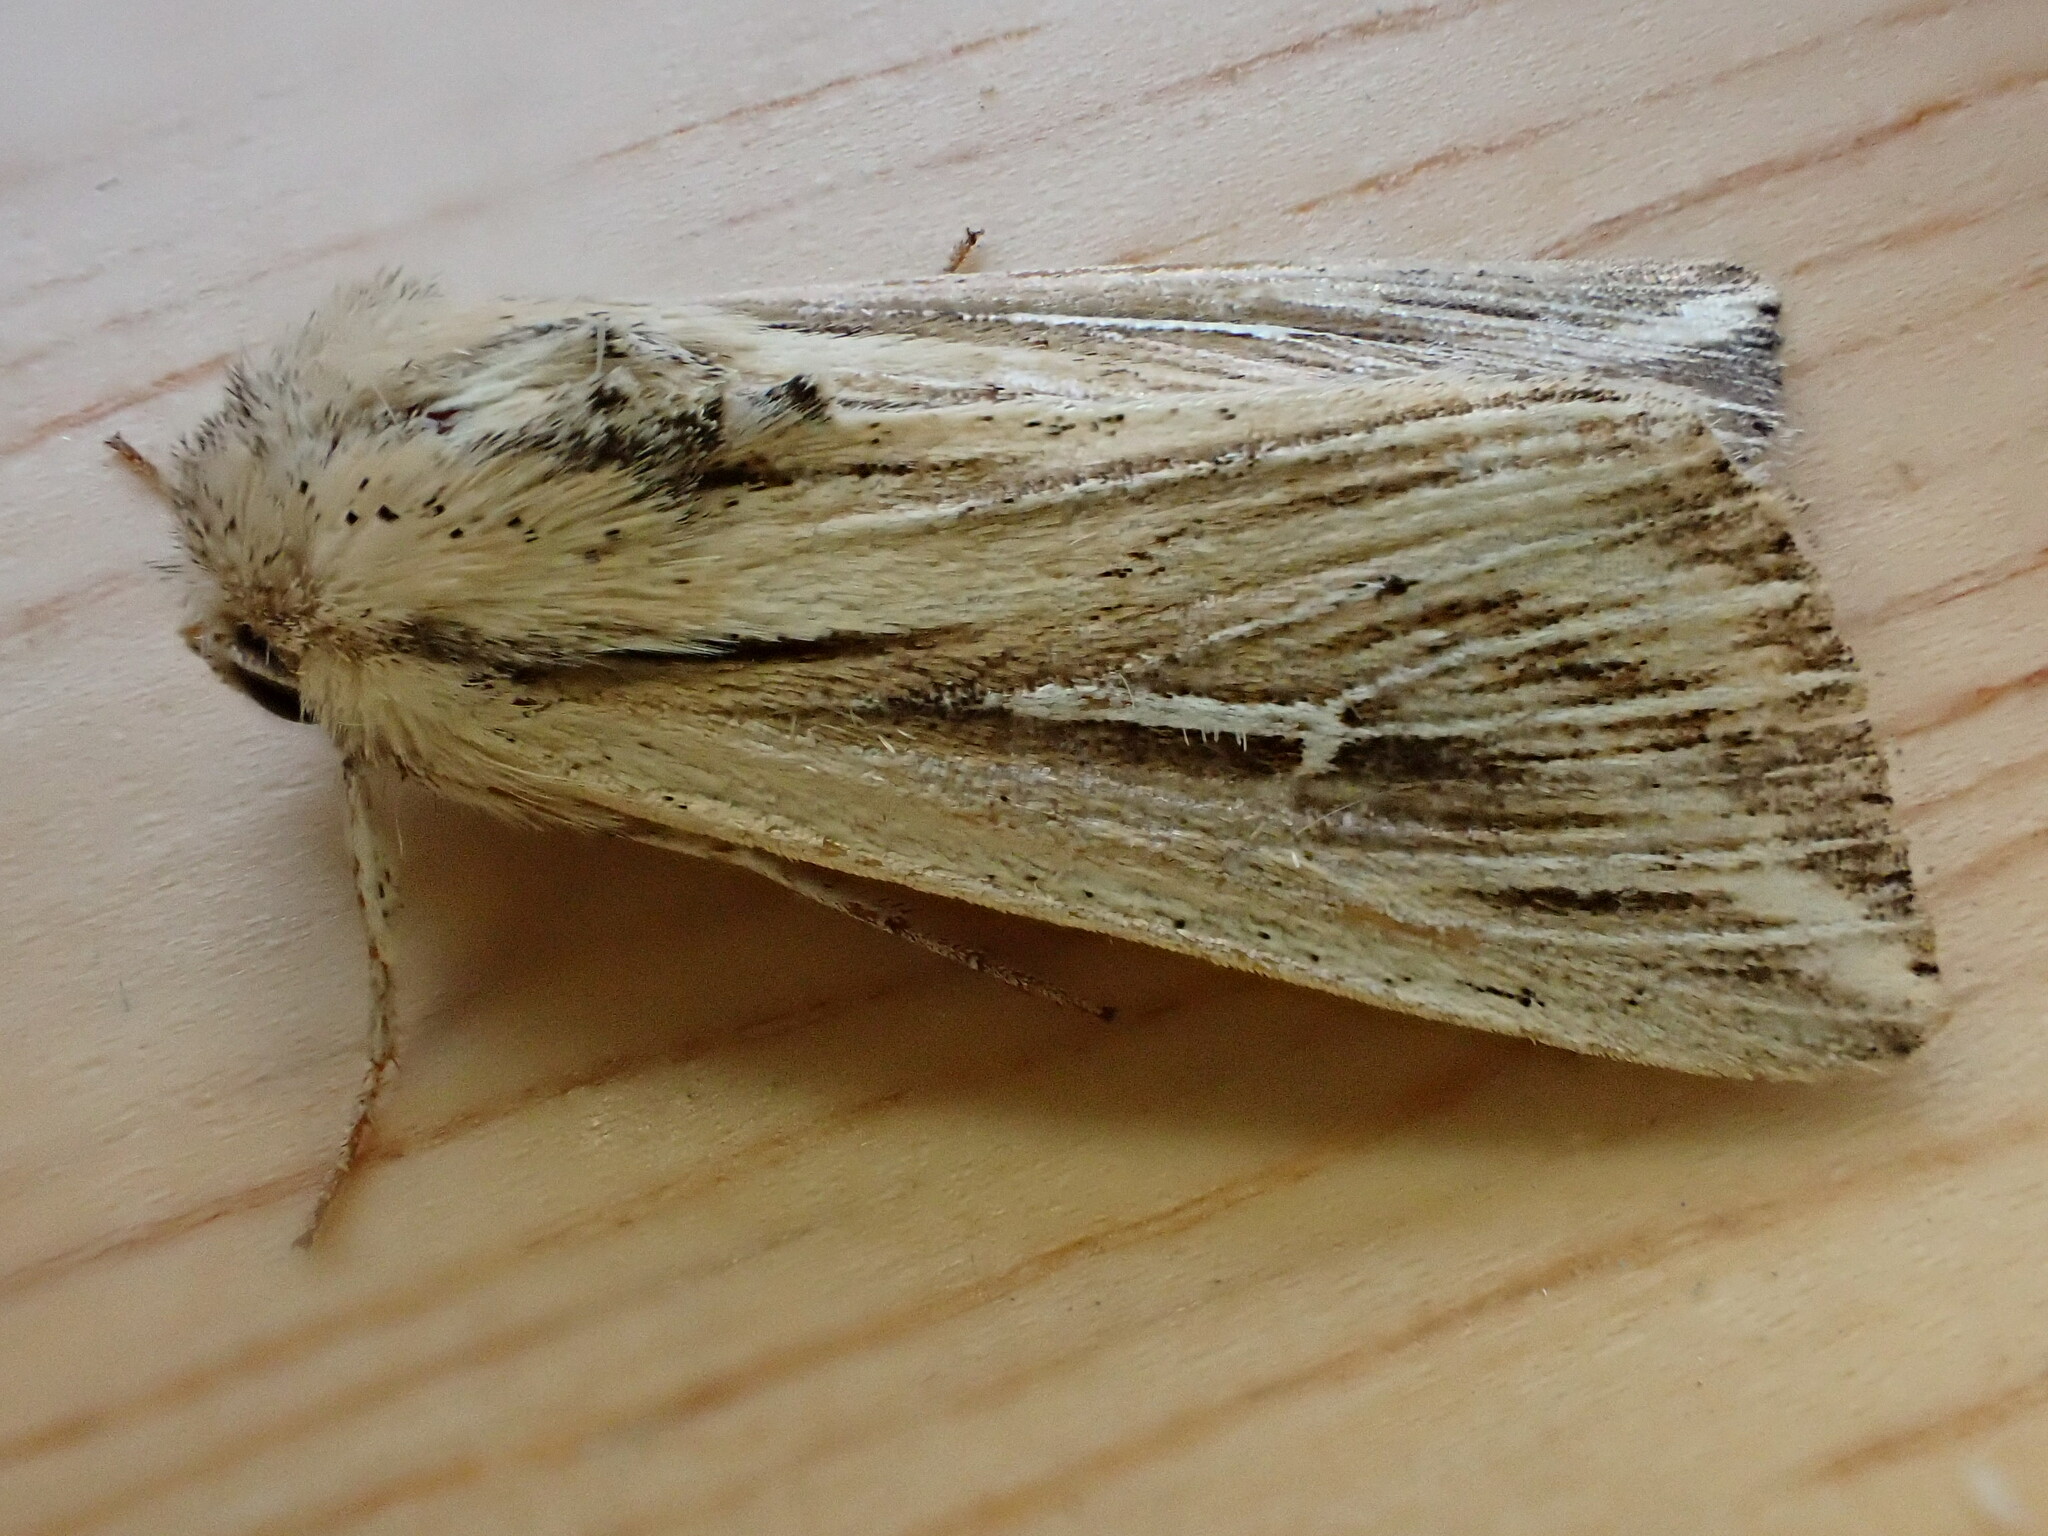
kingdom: Animalia
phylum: Arthropoda
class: Insecta
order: Lepidoptera
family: Noctuidae
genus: Mythimna
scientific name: Mythimna l-album
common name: L-album wainscot
